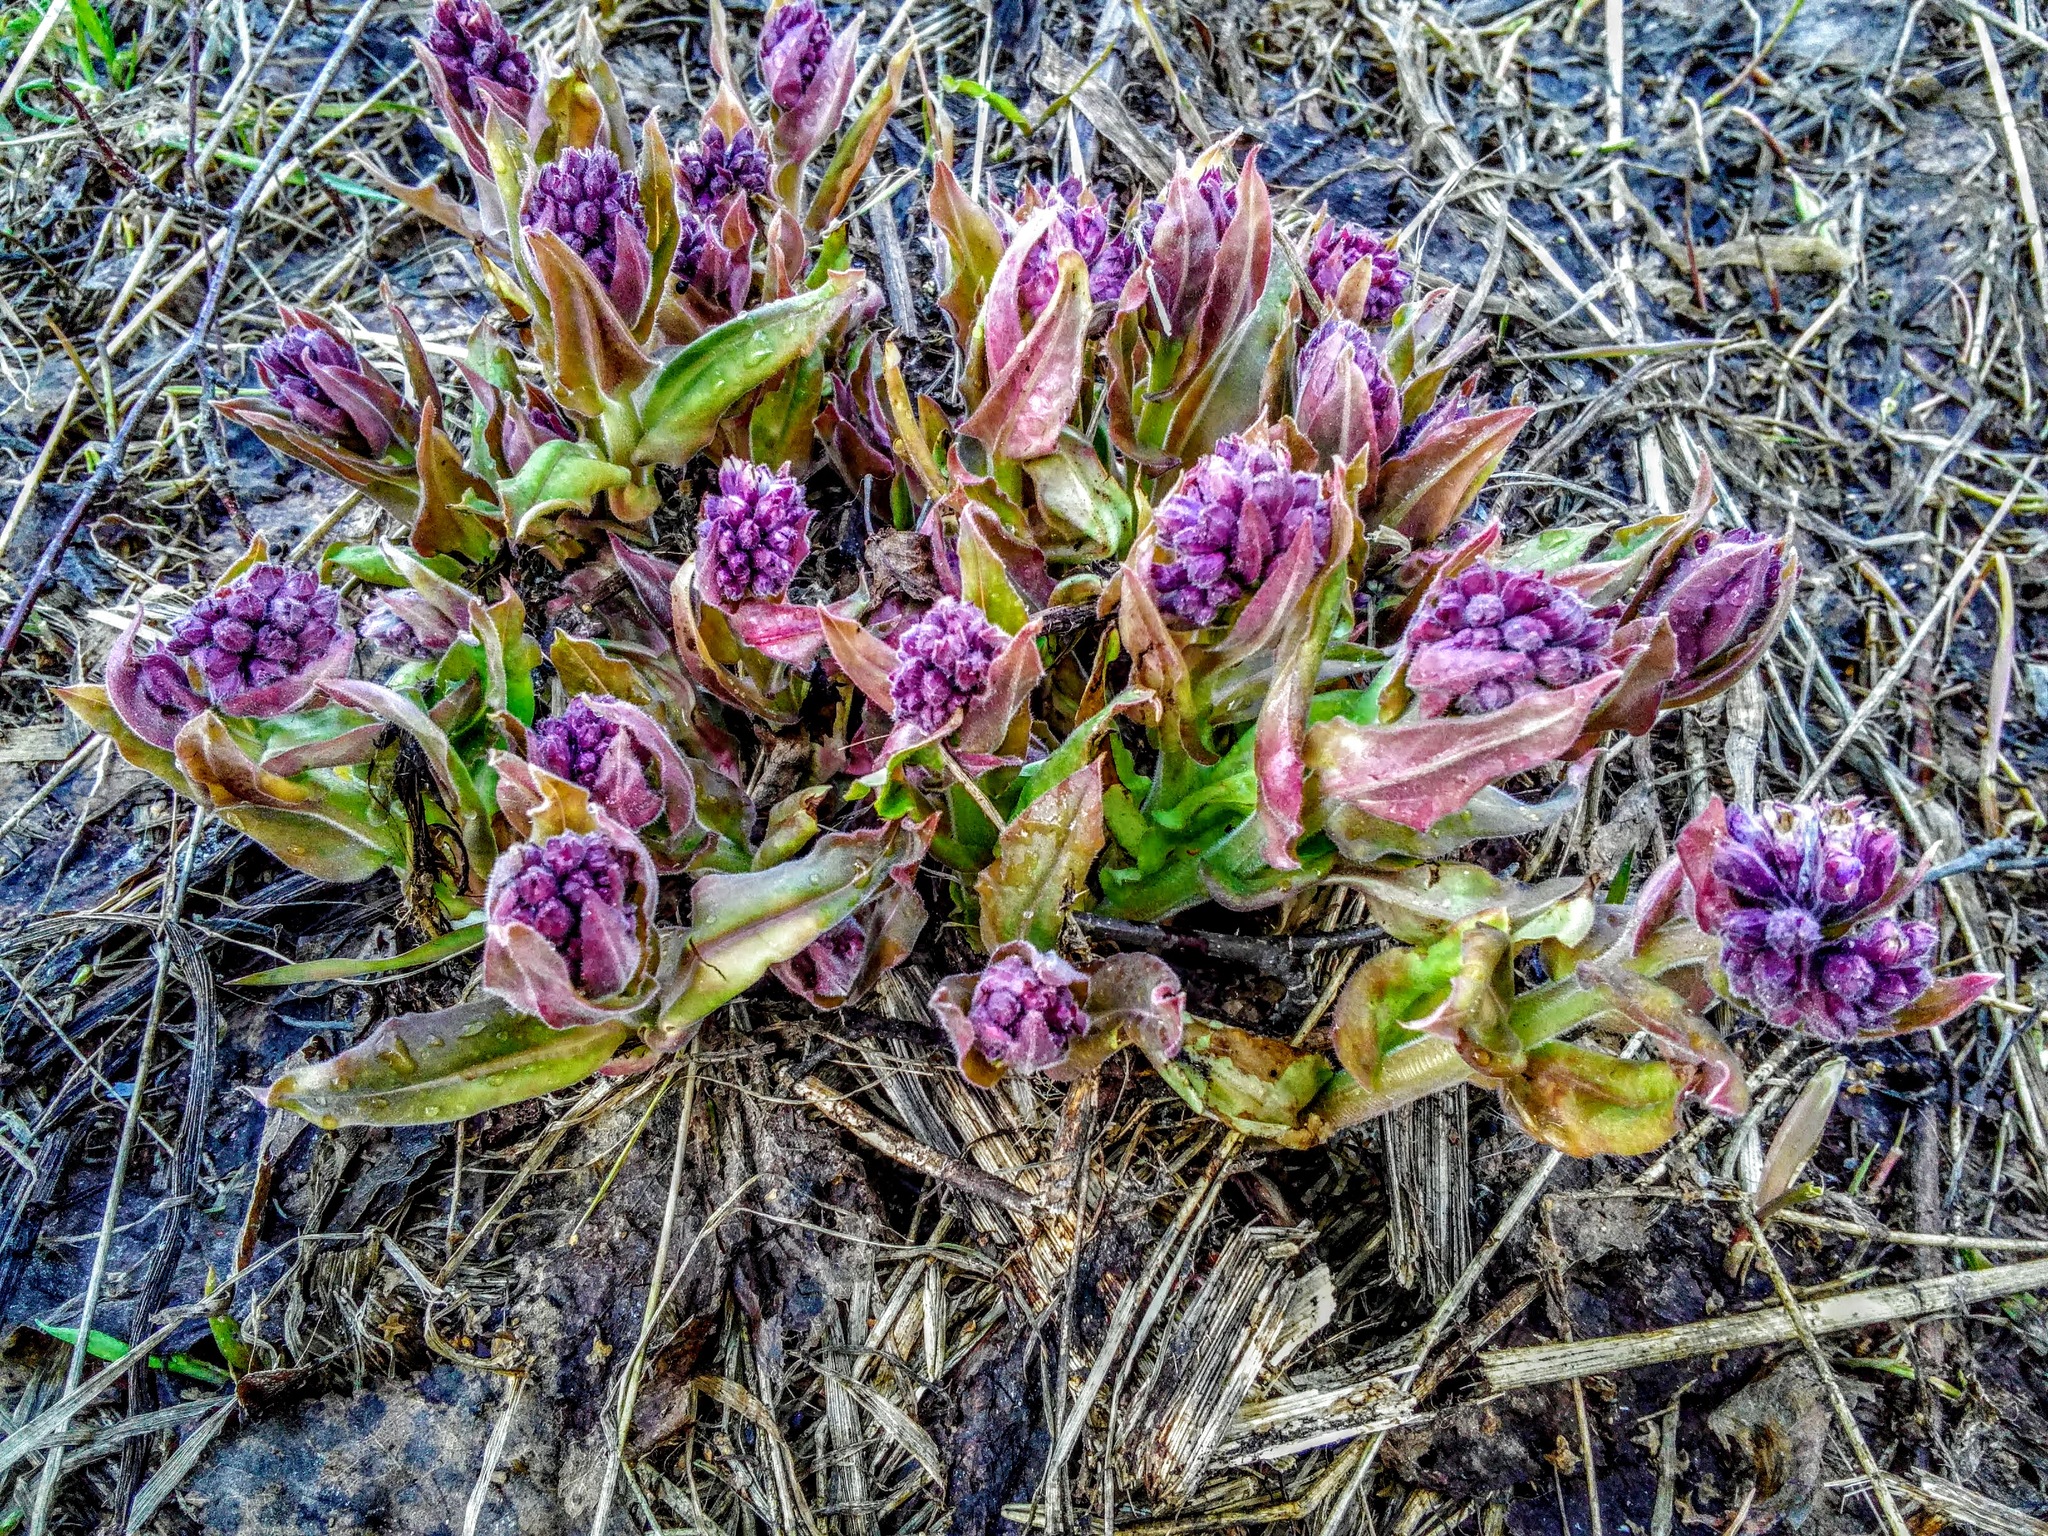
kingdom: Plantae
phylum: Tracheophyta
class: Magnoliopsida
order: Boraginales
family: Boraginaceae
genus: Pulmonaria
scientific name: Pulmonaria mollis
